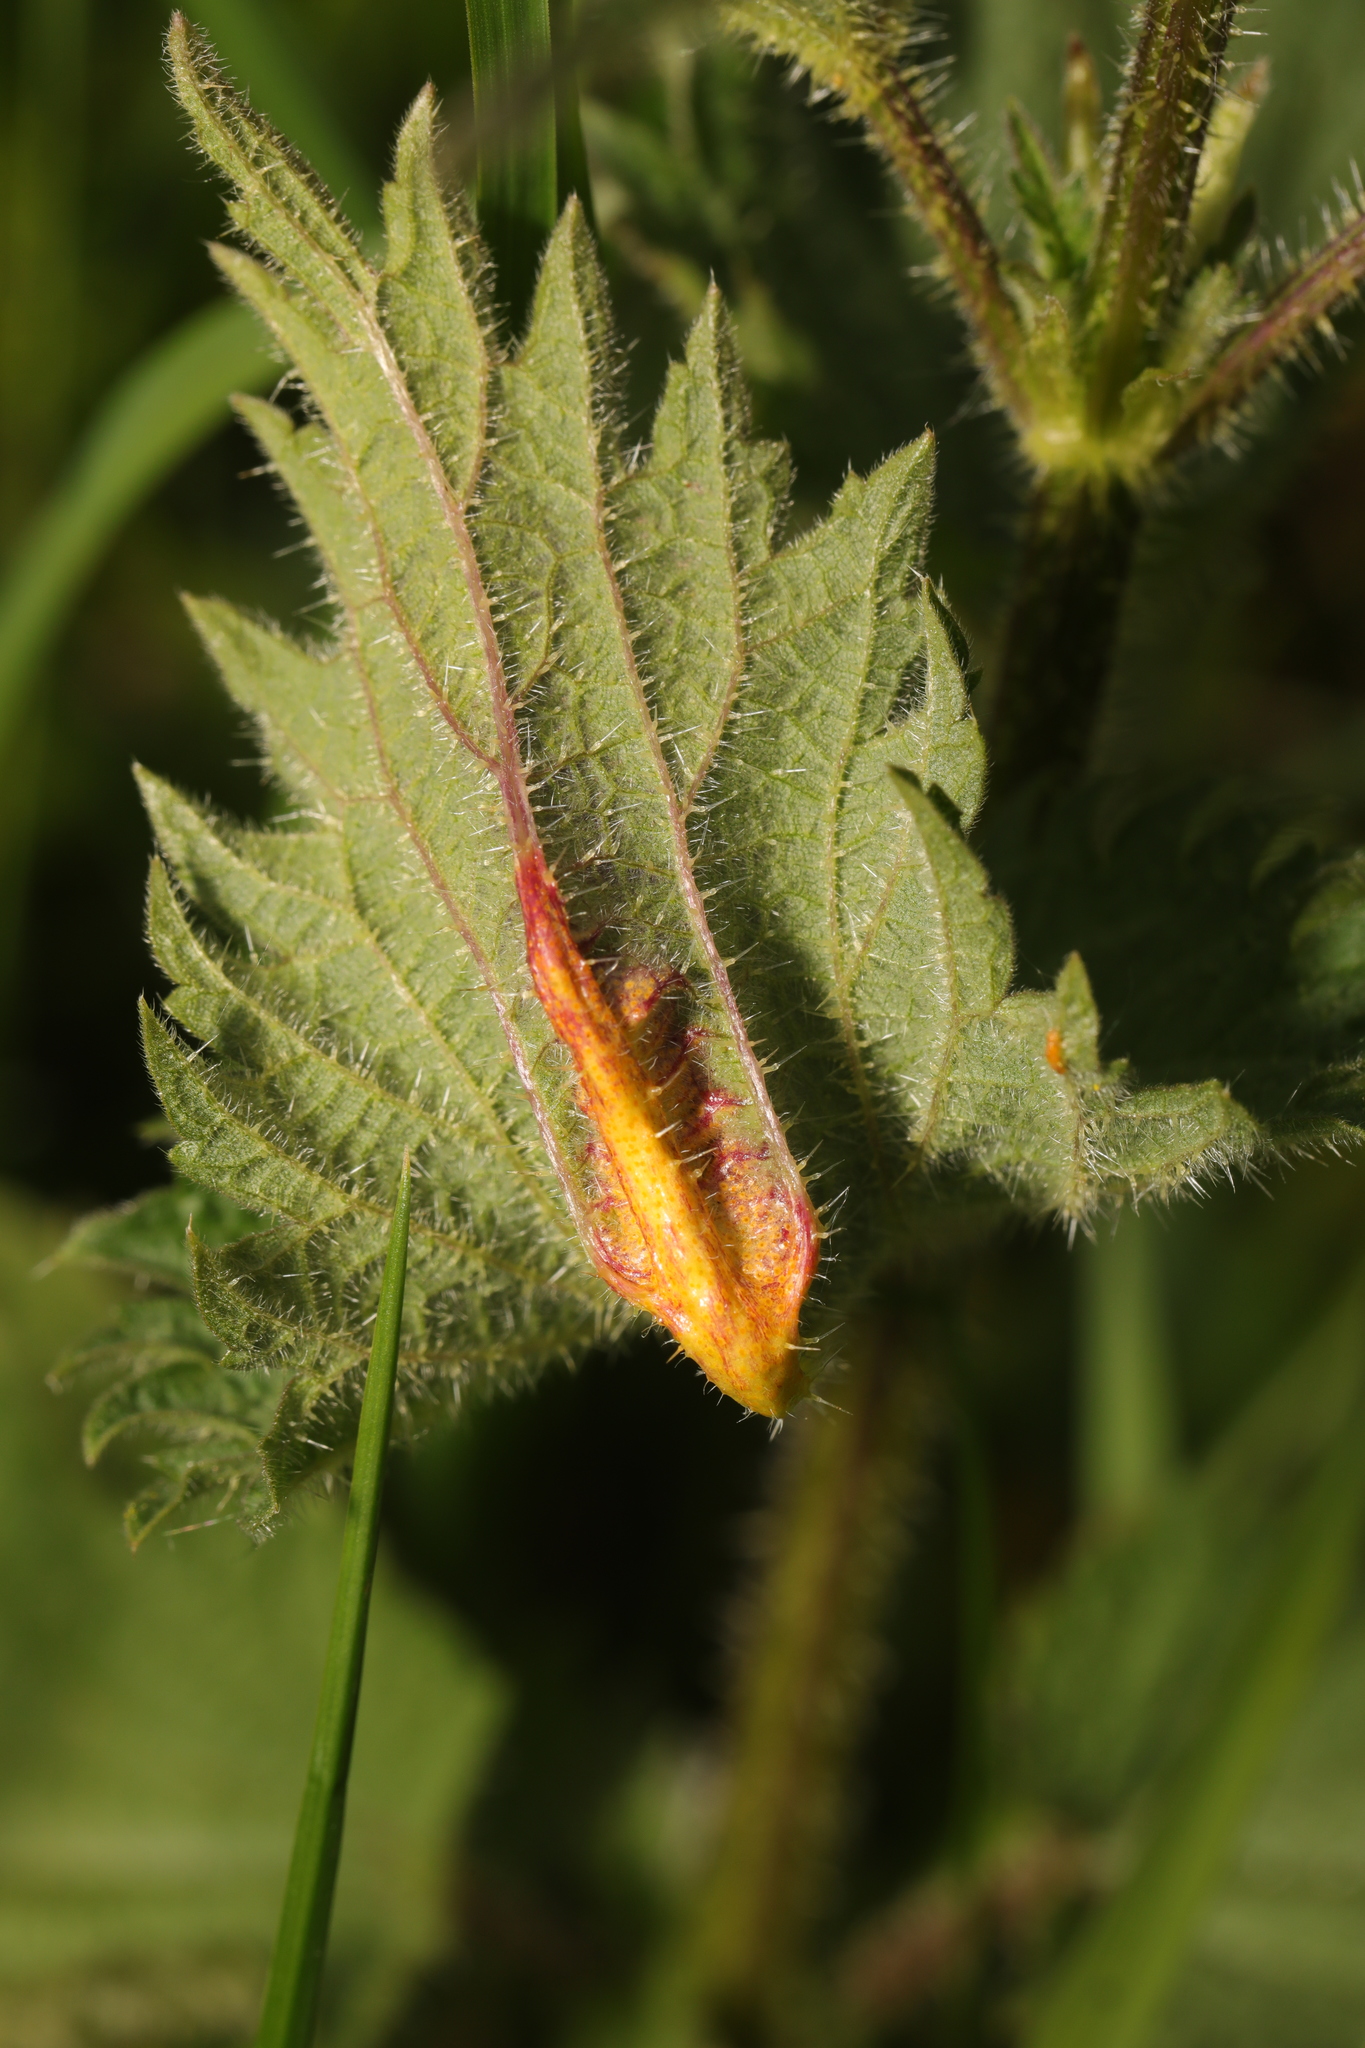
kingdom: Fungi
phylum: Basidiomycota
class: Pucciniomycetes
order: Pucciniales
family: Pucciniaceae
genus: Puccinia
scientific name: Puccinia urticata
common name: Nettle clustercup rust fungus
